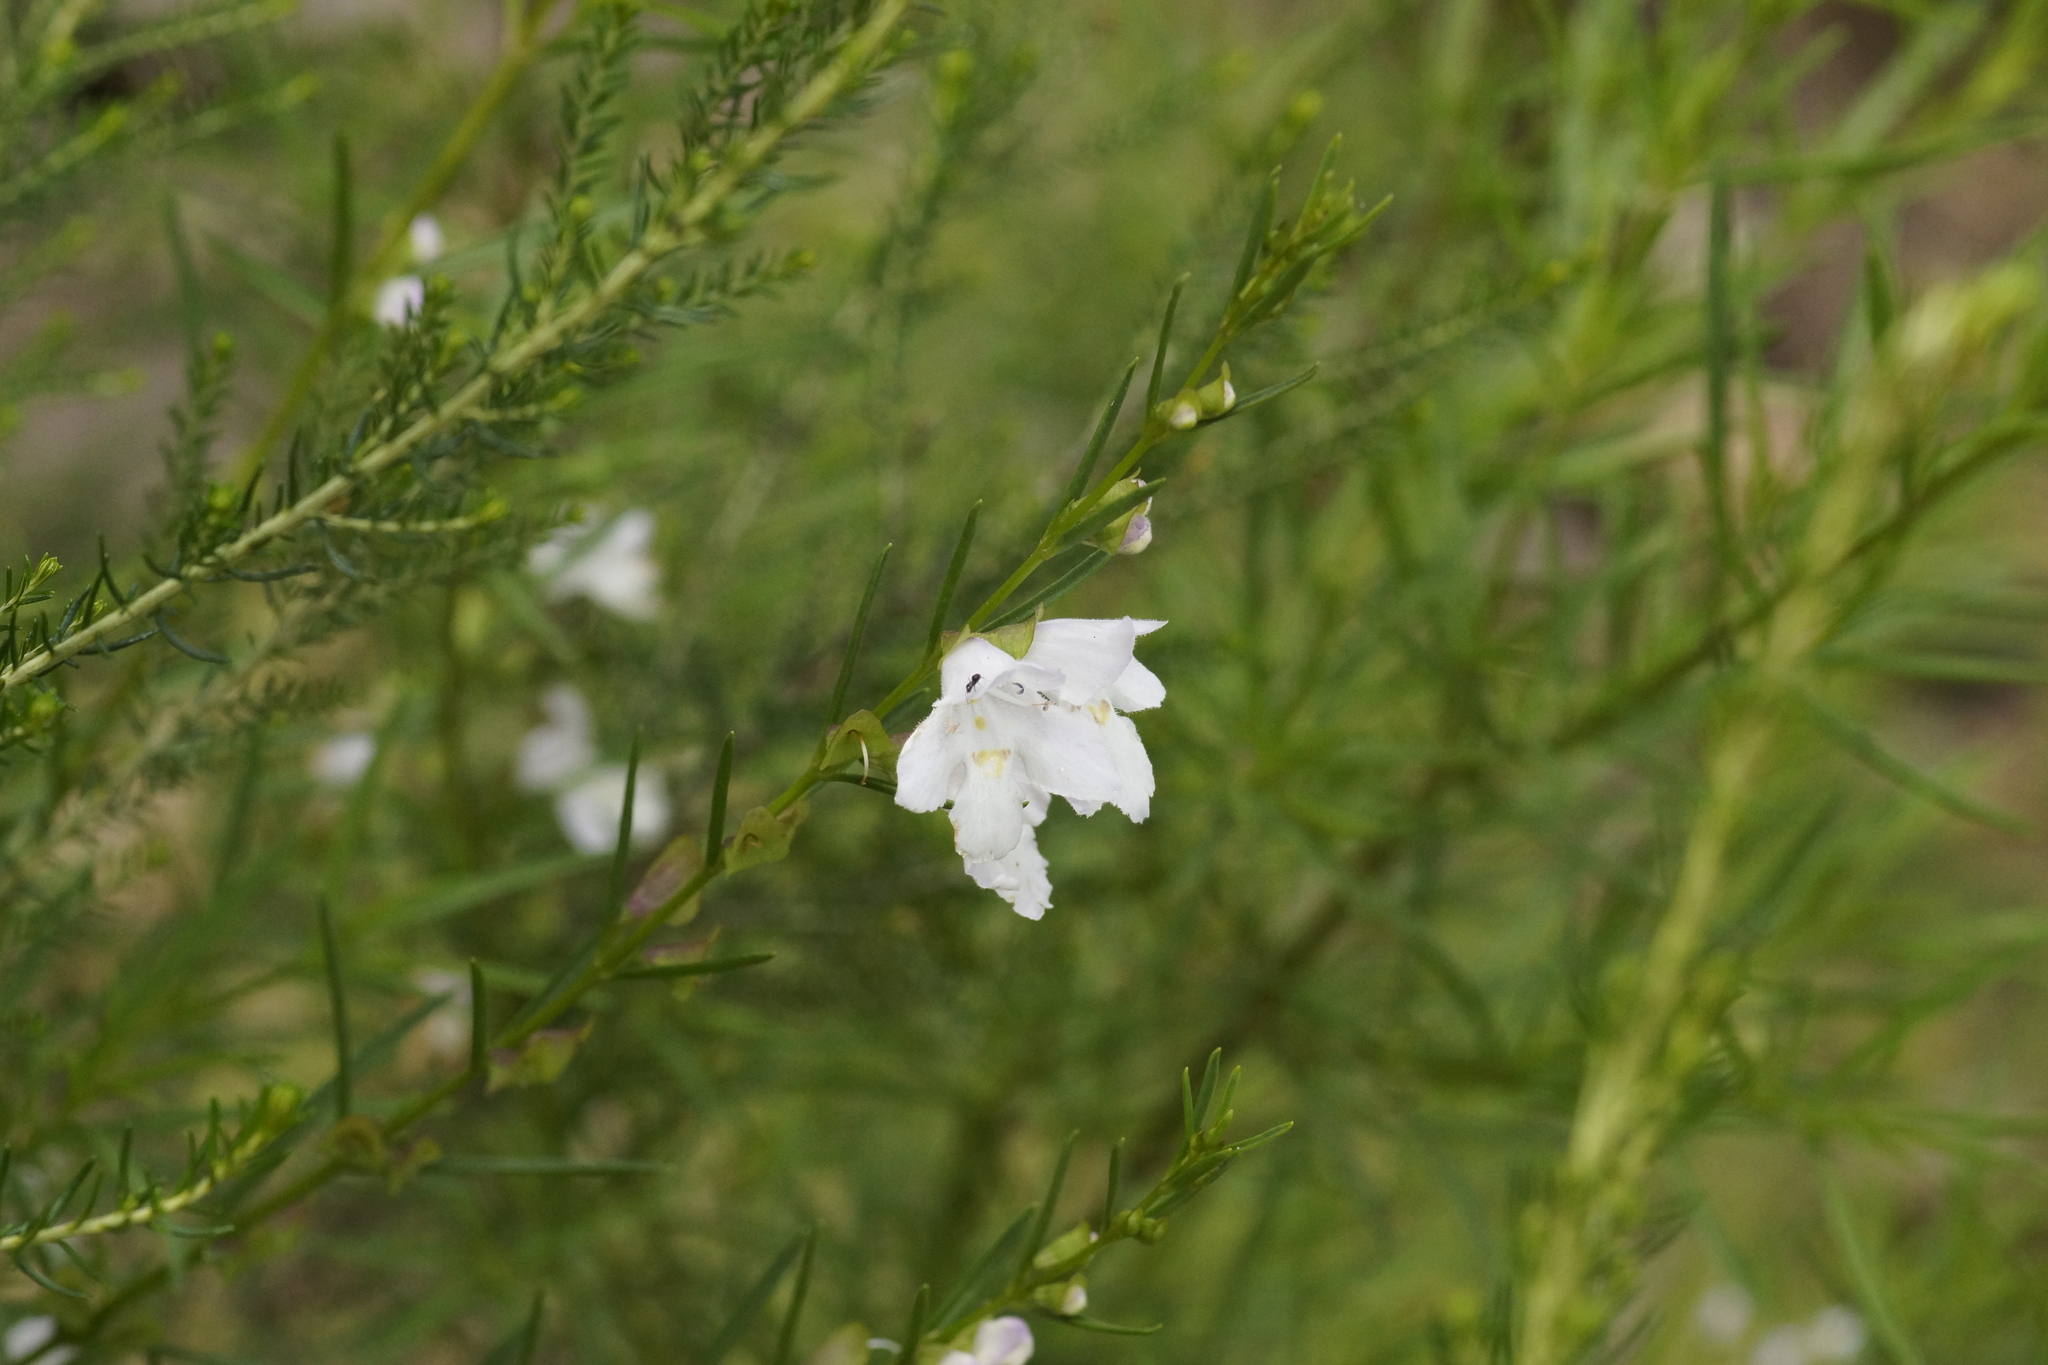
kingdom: Plantae
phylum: Tracheophyta
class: Magnoliopsida
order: Lamiales
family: Lamiaceae
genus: Prostanthera
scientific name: Prostanthera nivea
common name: Snowy mintbush
